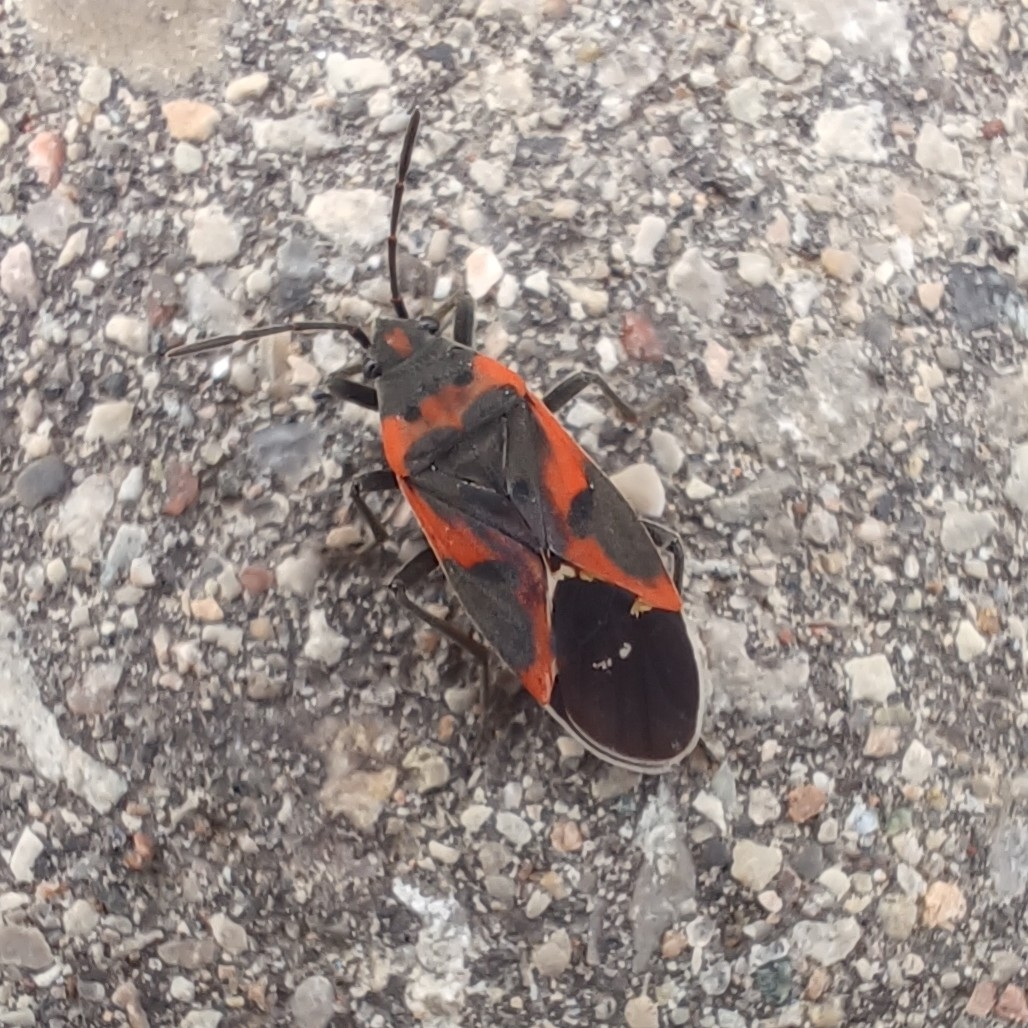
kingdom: Animalia
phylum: Arthropoda
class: Insecta
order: Hemiptera
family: Lygaeidae
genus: Lygaeus
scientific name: Lygaeus kalmii
